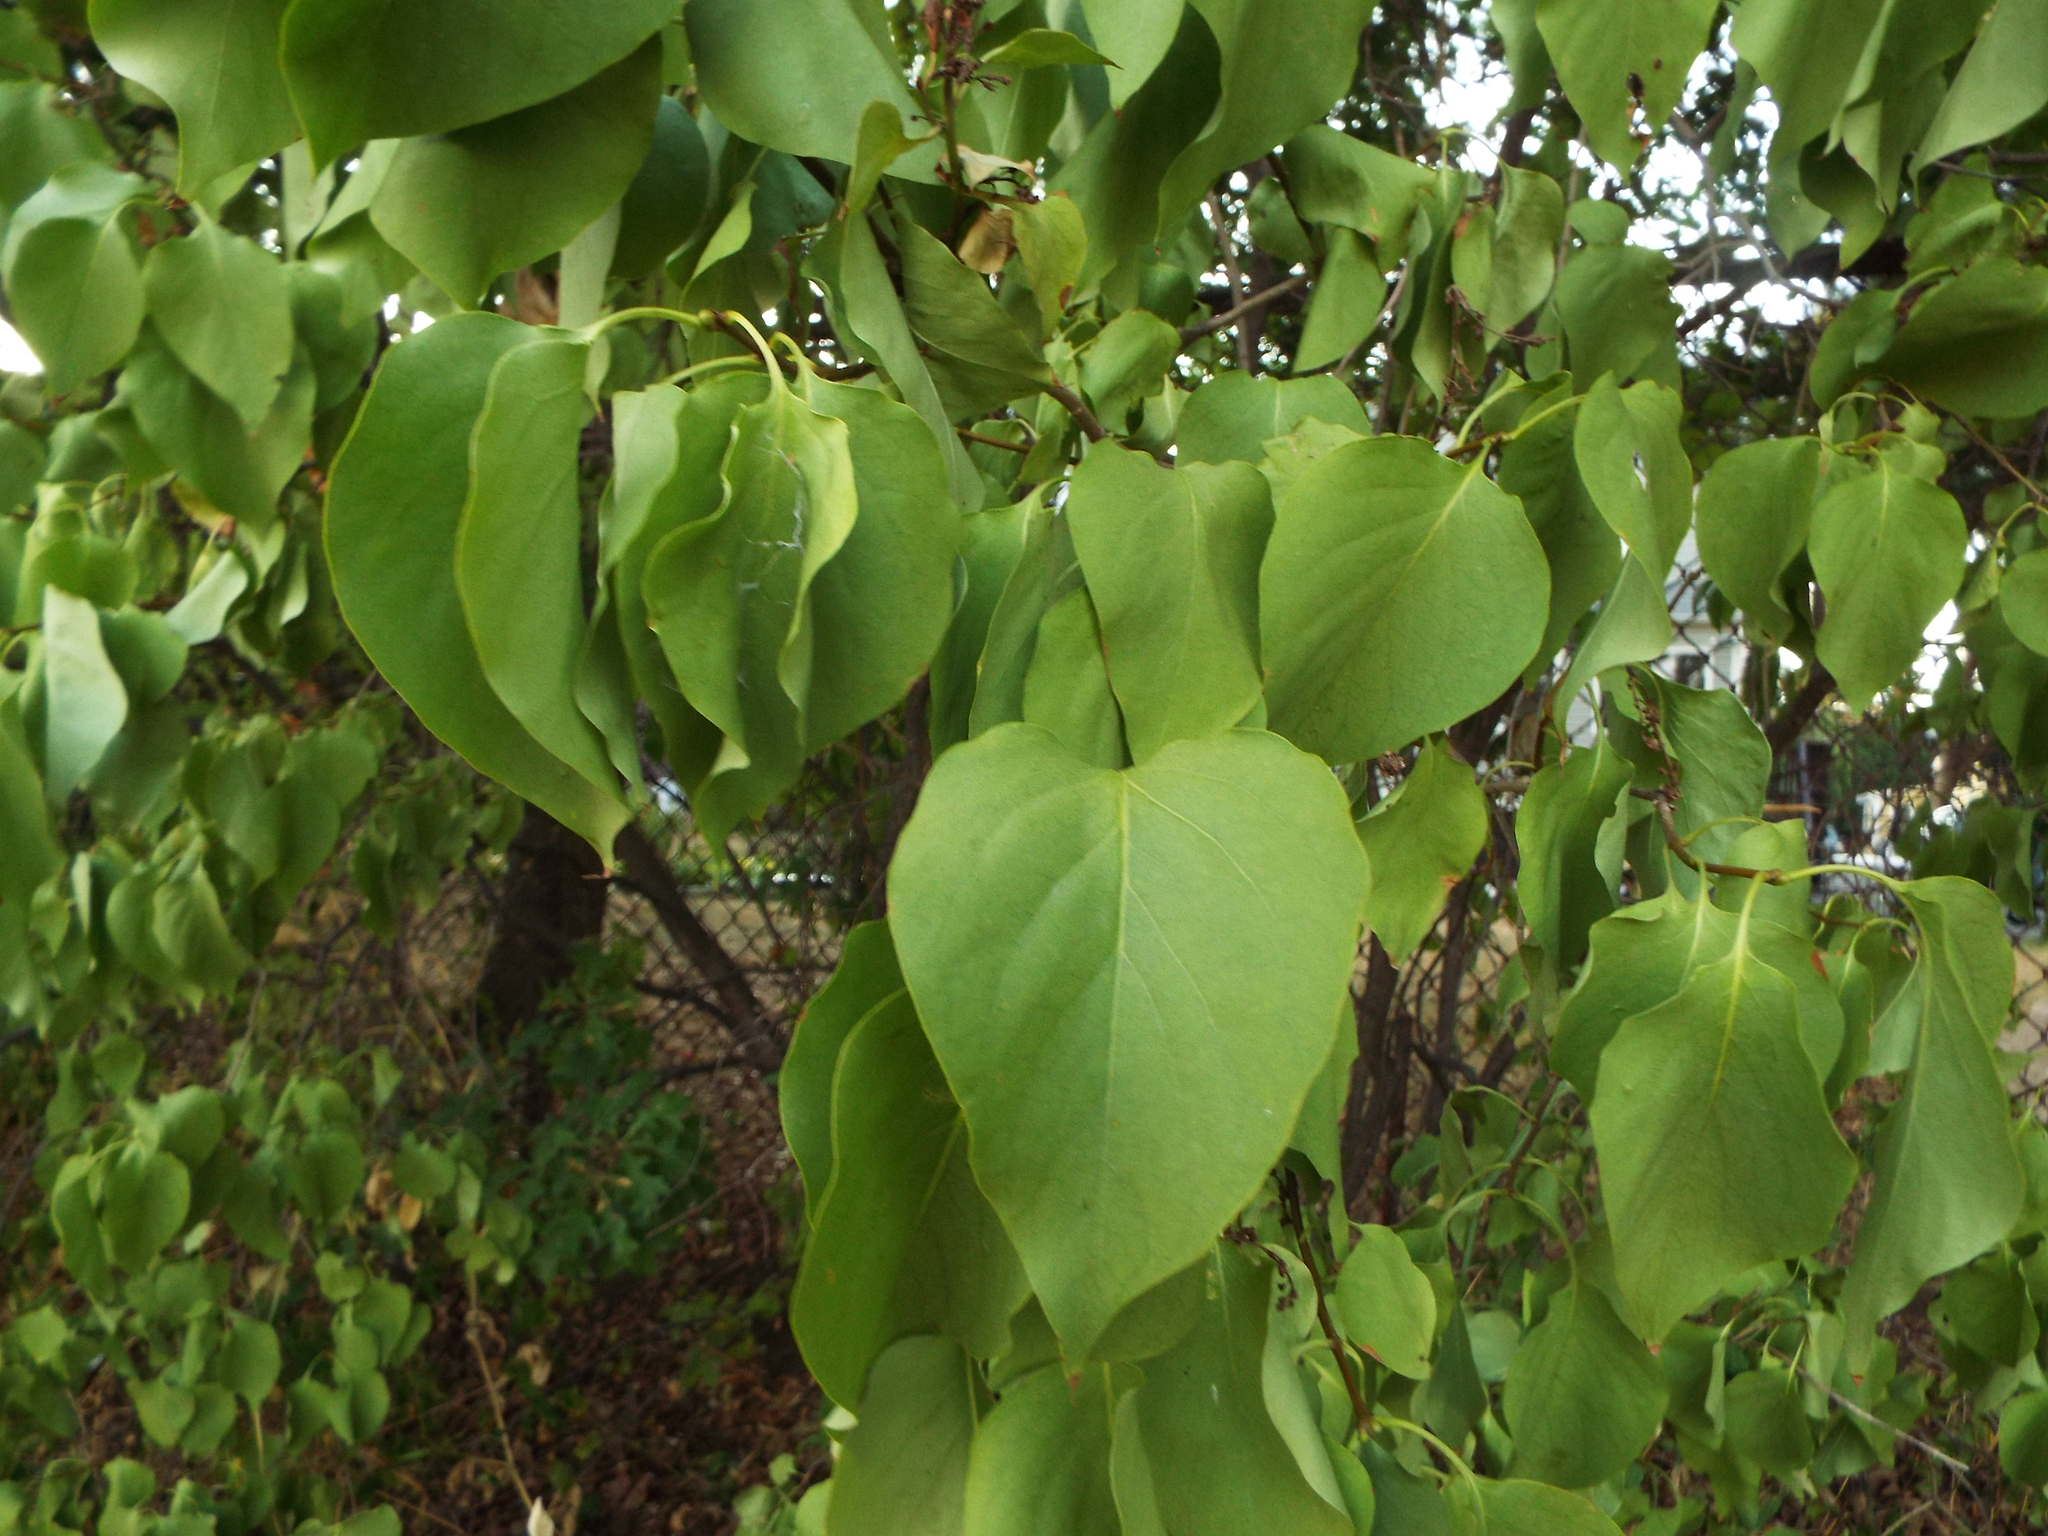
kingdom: Plantae
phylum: Tracheophyta
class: Magnoliopsida
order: Lamiales
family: Oleaceae
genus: Syringa
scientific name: Syringa vulgaris
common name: Common lilac
